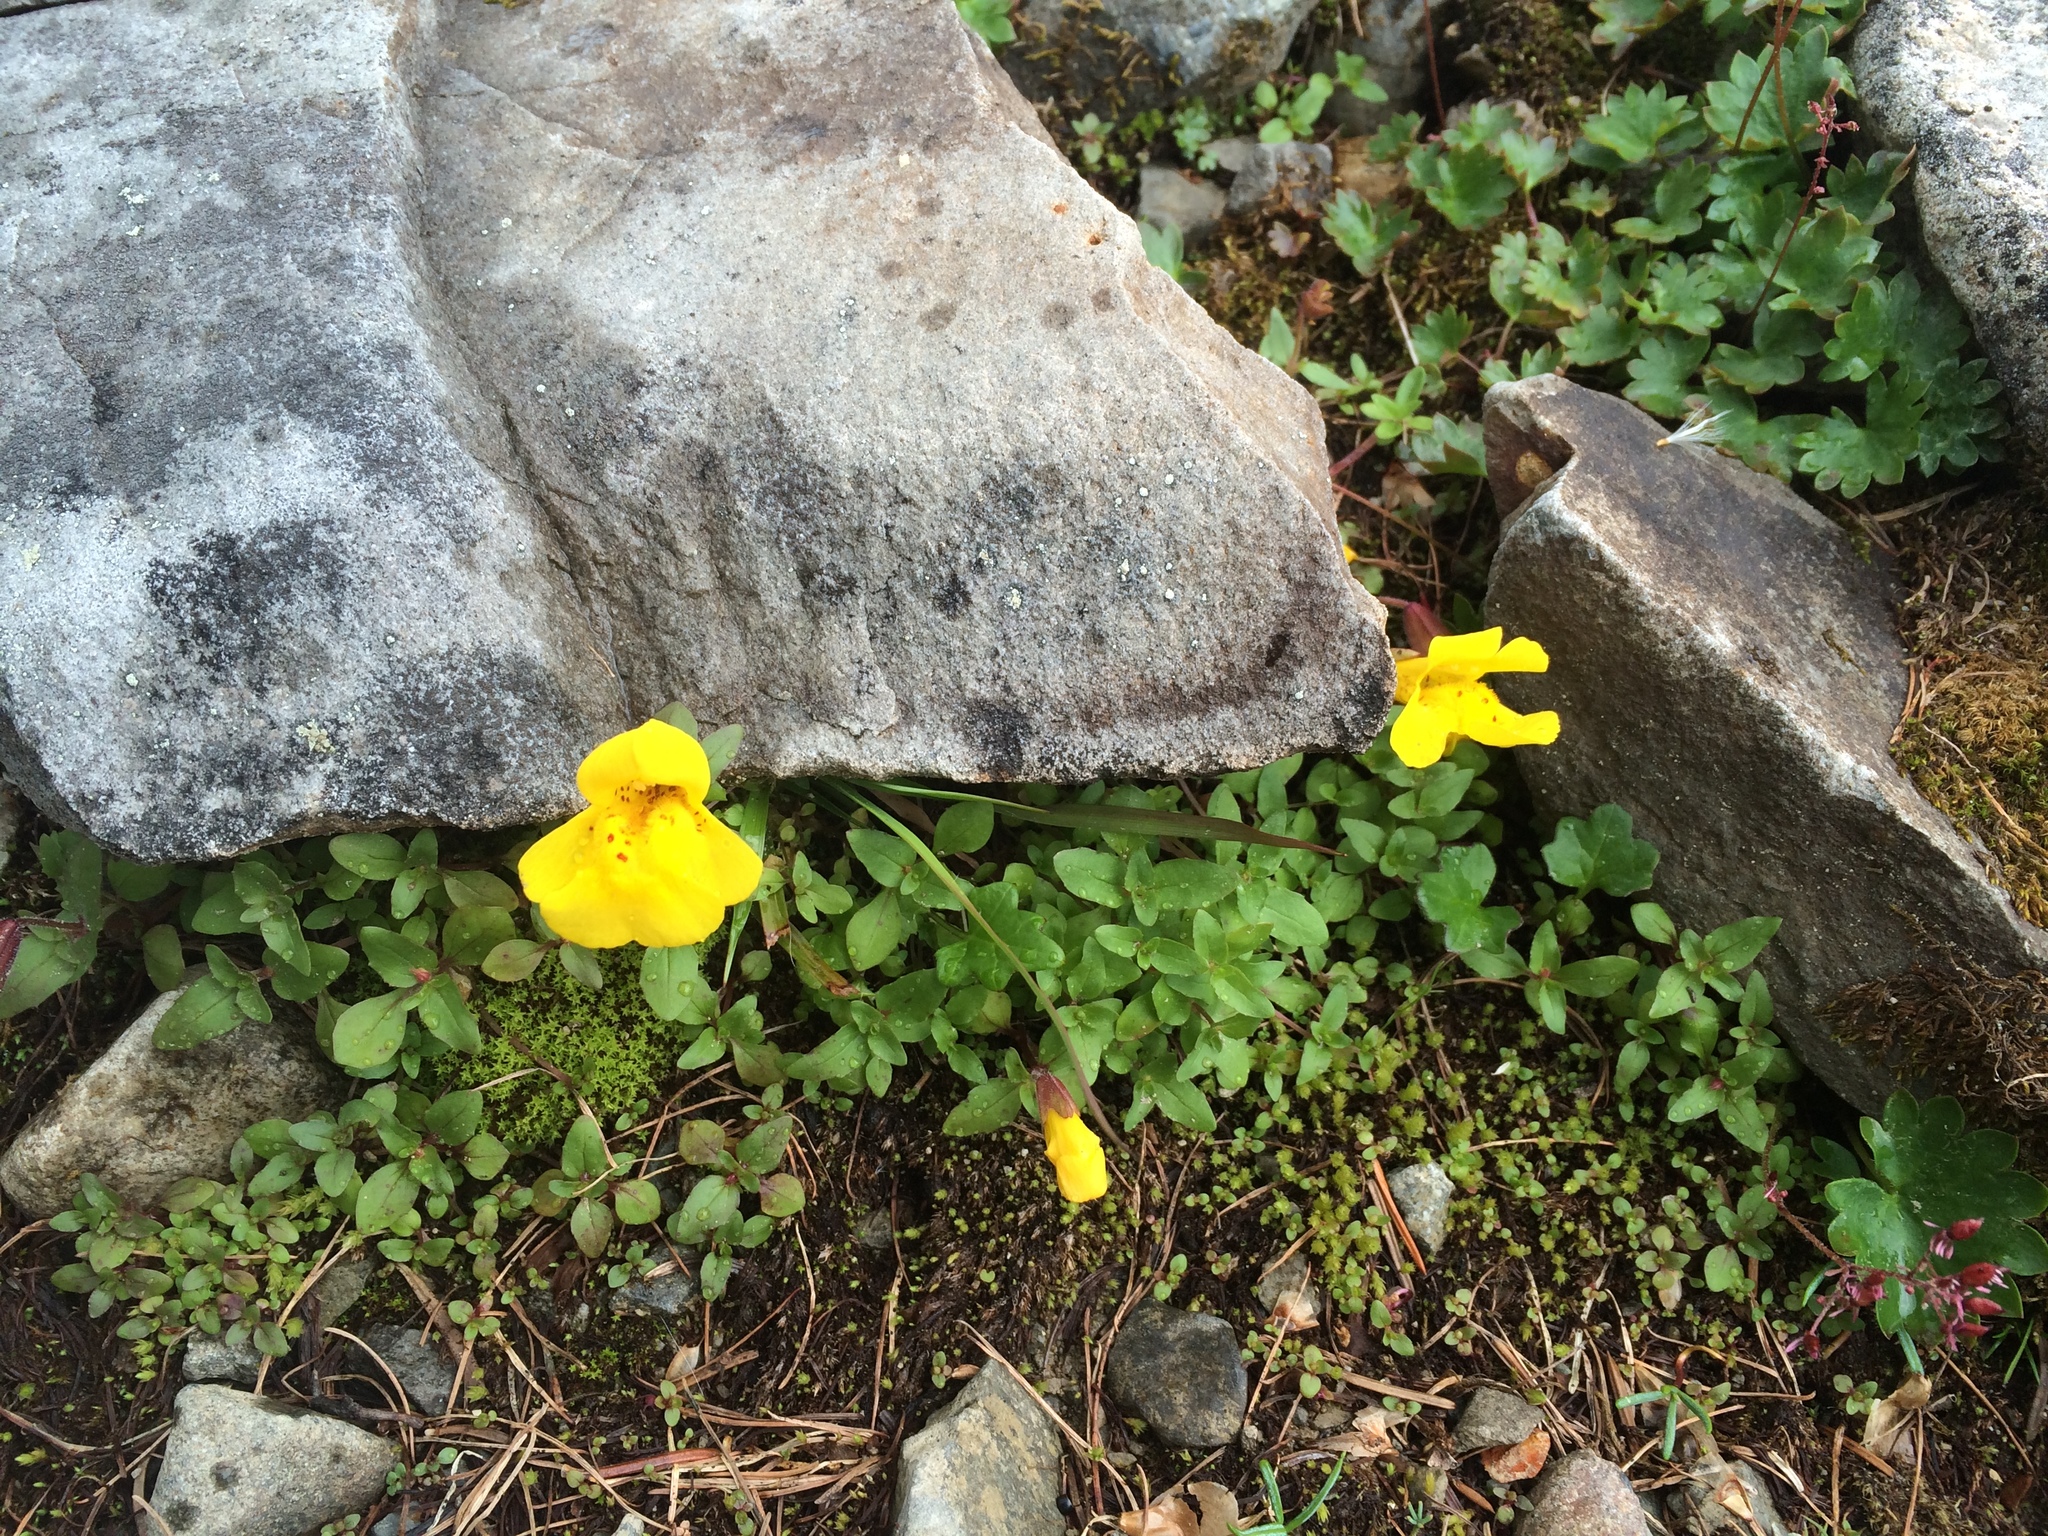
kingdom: Plantae
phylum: Tracheophyta
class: Magnoliopsida
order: Lamiales
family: Phrymaceae
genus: Erythranthe
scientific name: Erythranthe caespitosa
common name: Subalpine monkeyflower
